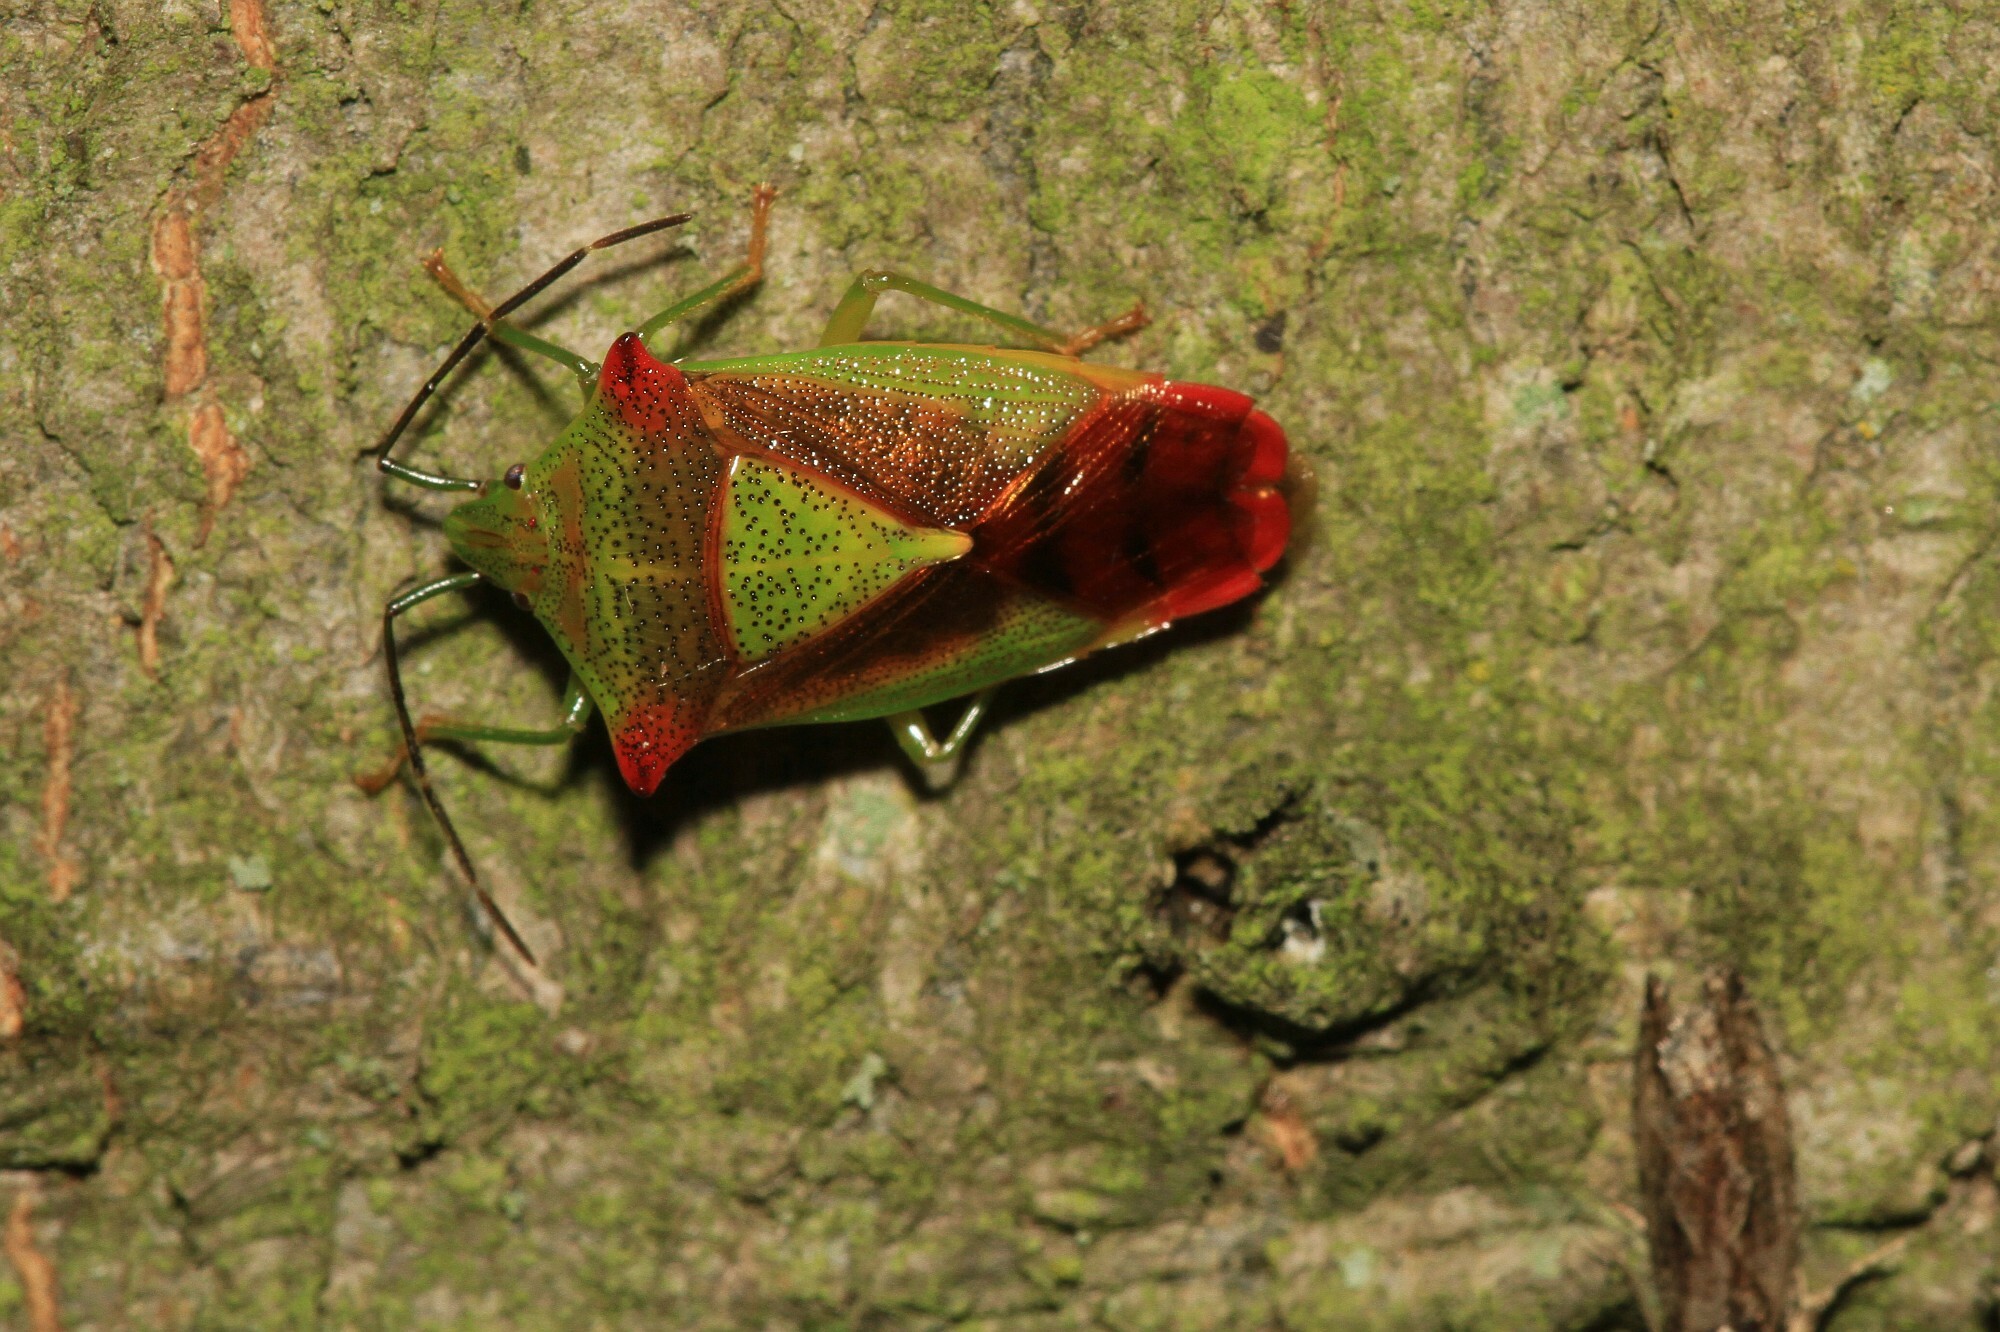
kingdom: Animalia
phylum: Arthropoda
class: Insecta
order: Hemiptera
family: Acanthosomatidae
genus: Acanthosoma
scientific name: Acanthosoma haemorrhoidale
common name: Hawthorn shieldbug
